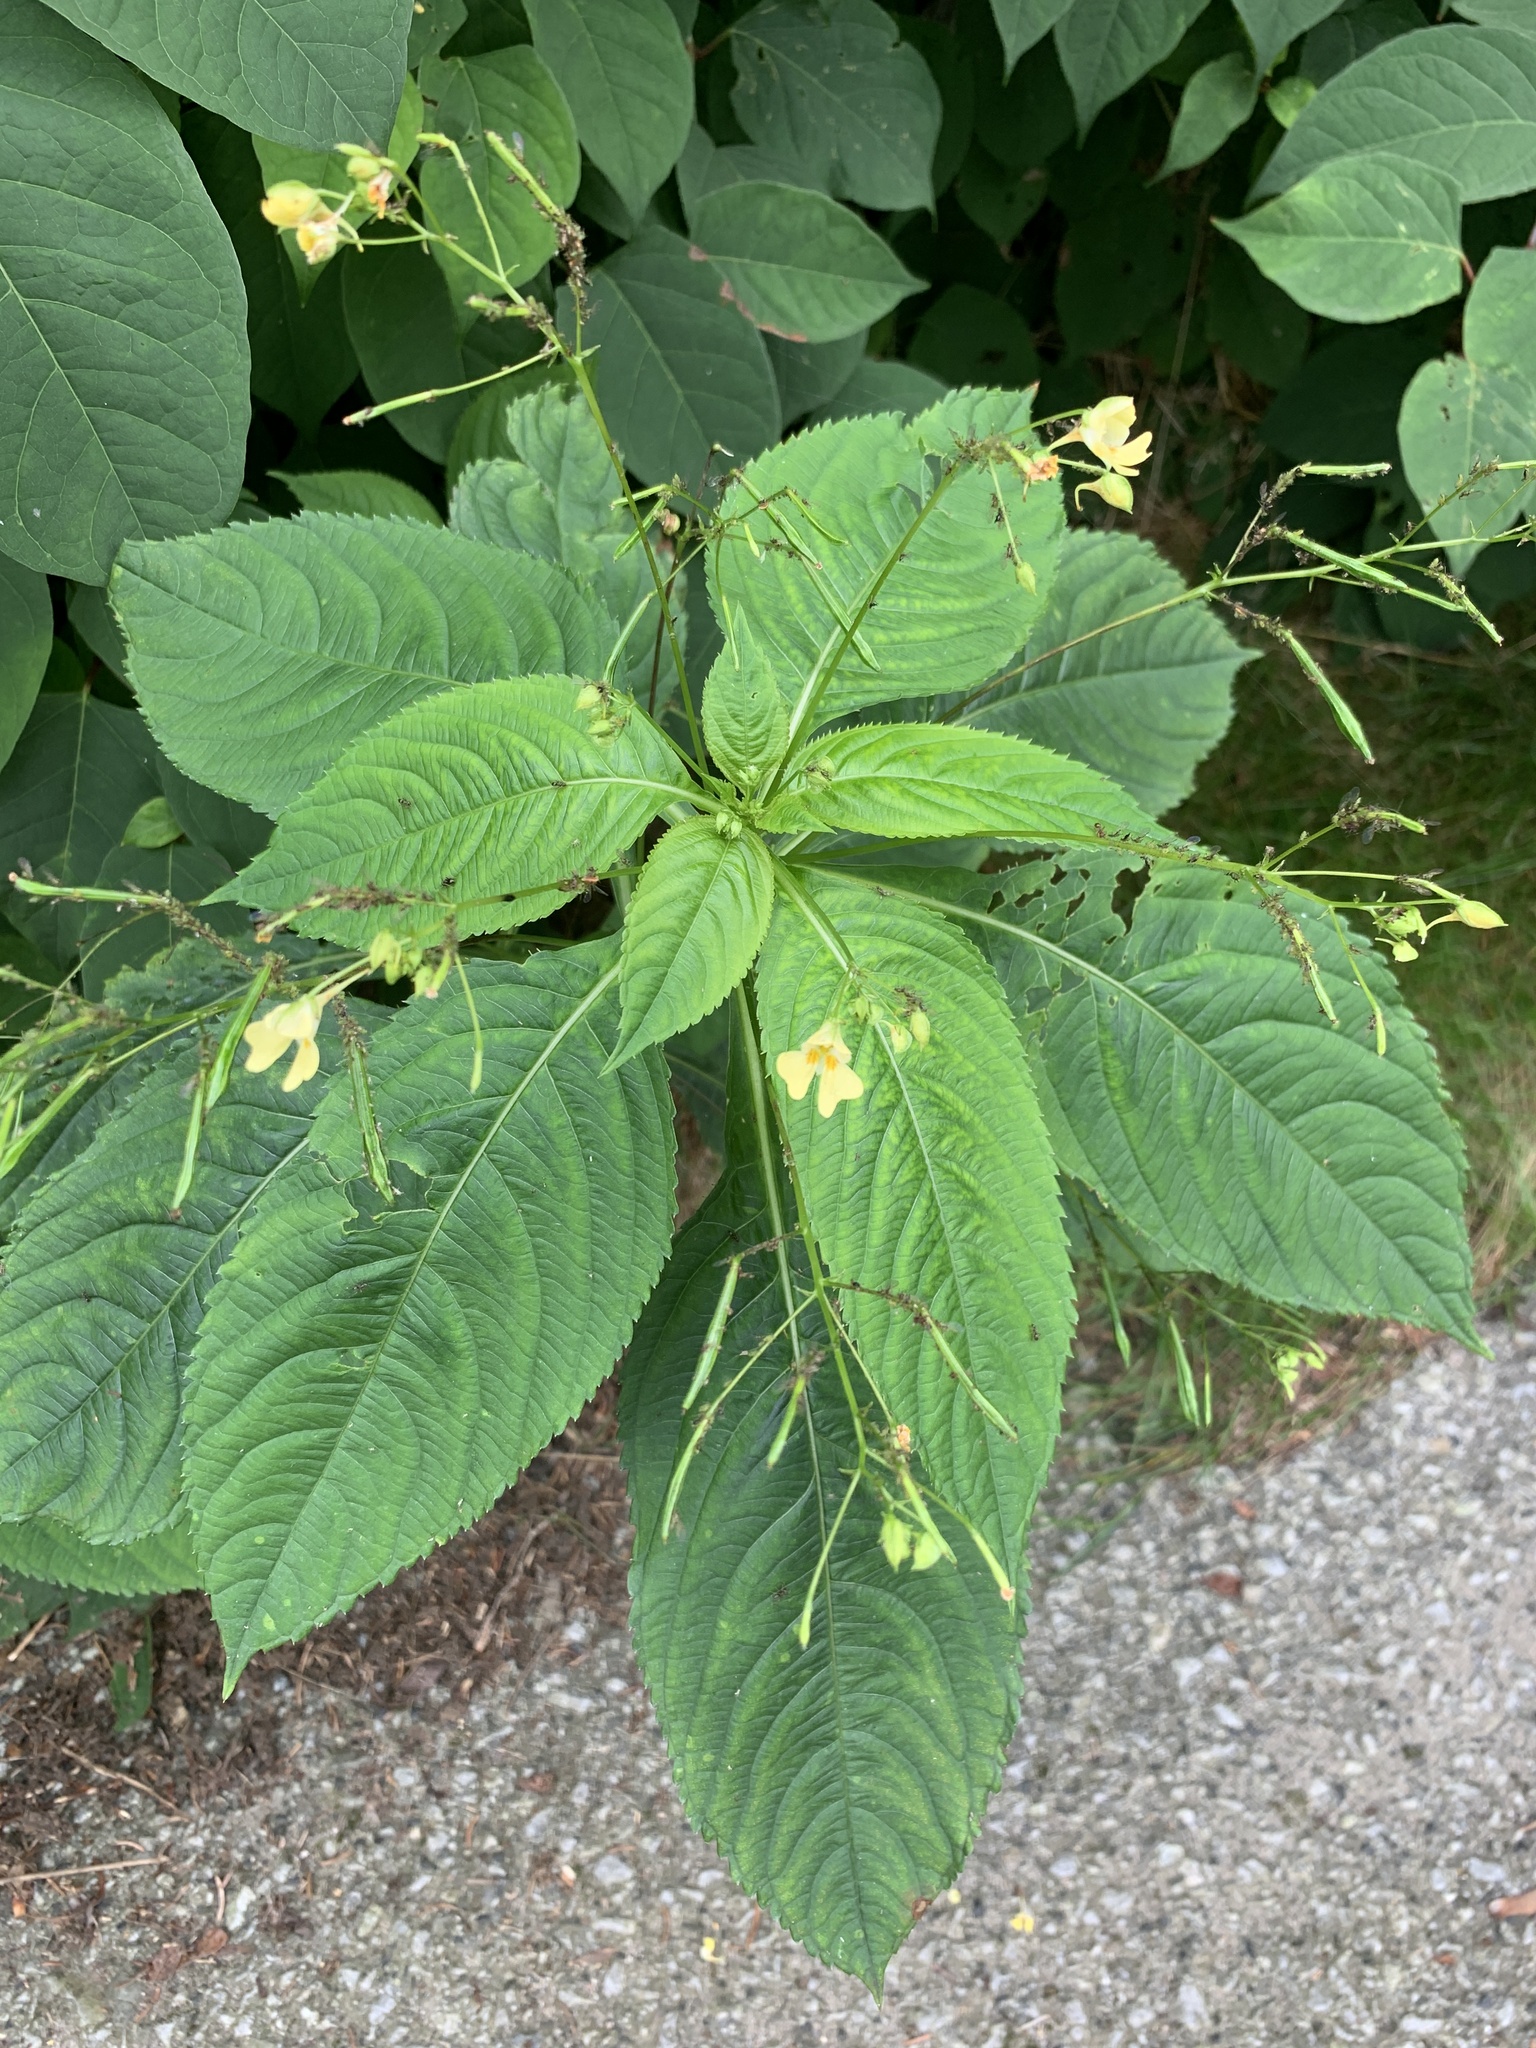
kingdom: Plantae
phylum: Tracheophyta
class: Magnoliopsida
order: Ericales
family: Balsaminaceae
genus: Impatiens
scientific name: Impatiens parviflora
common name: Small balsam
